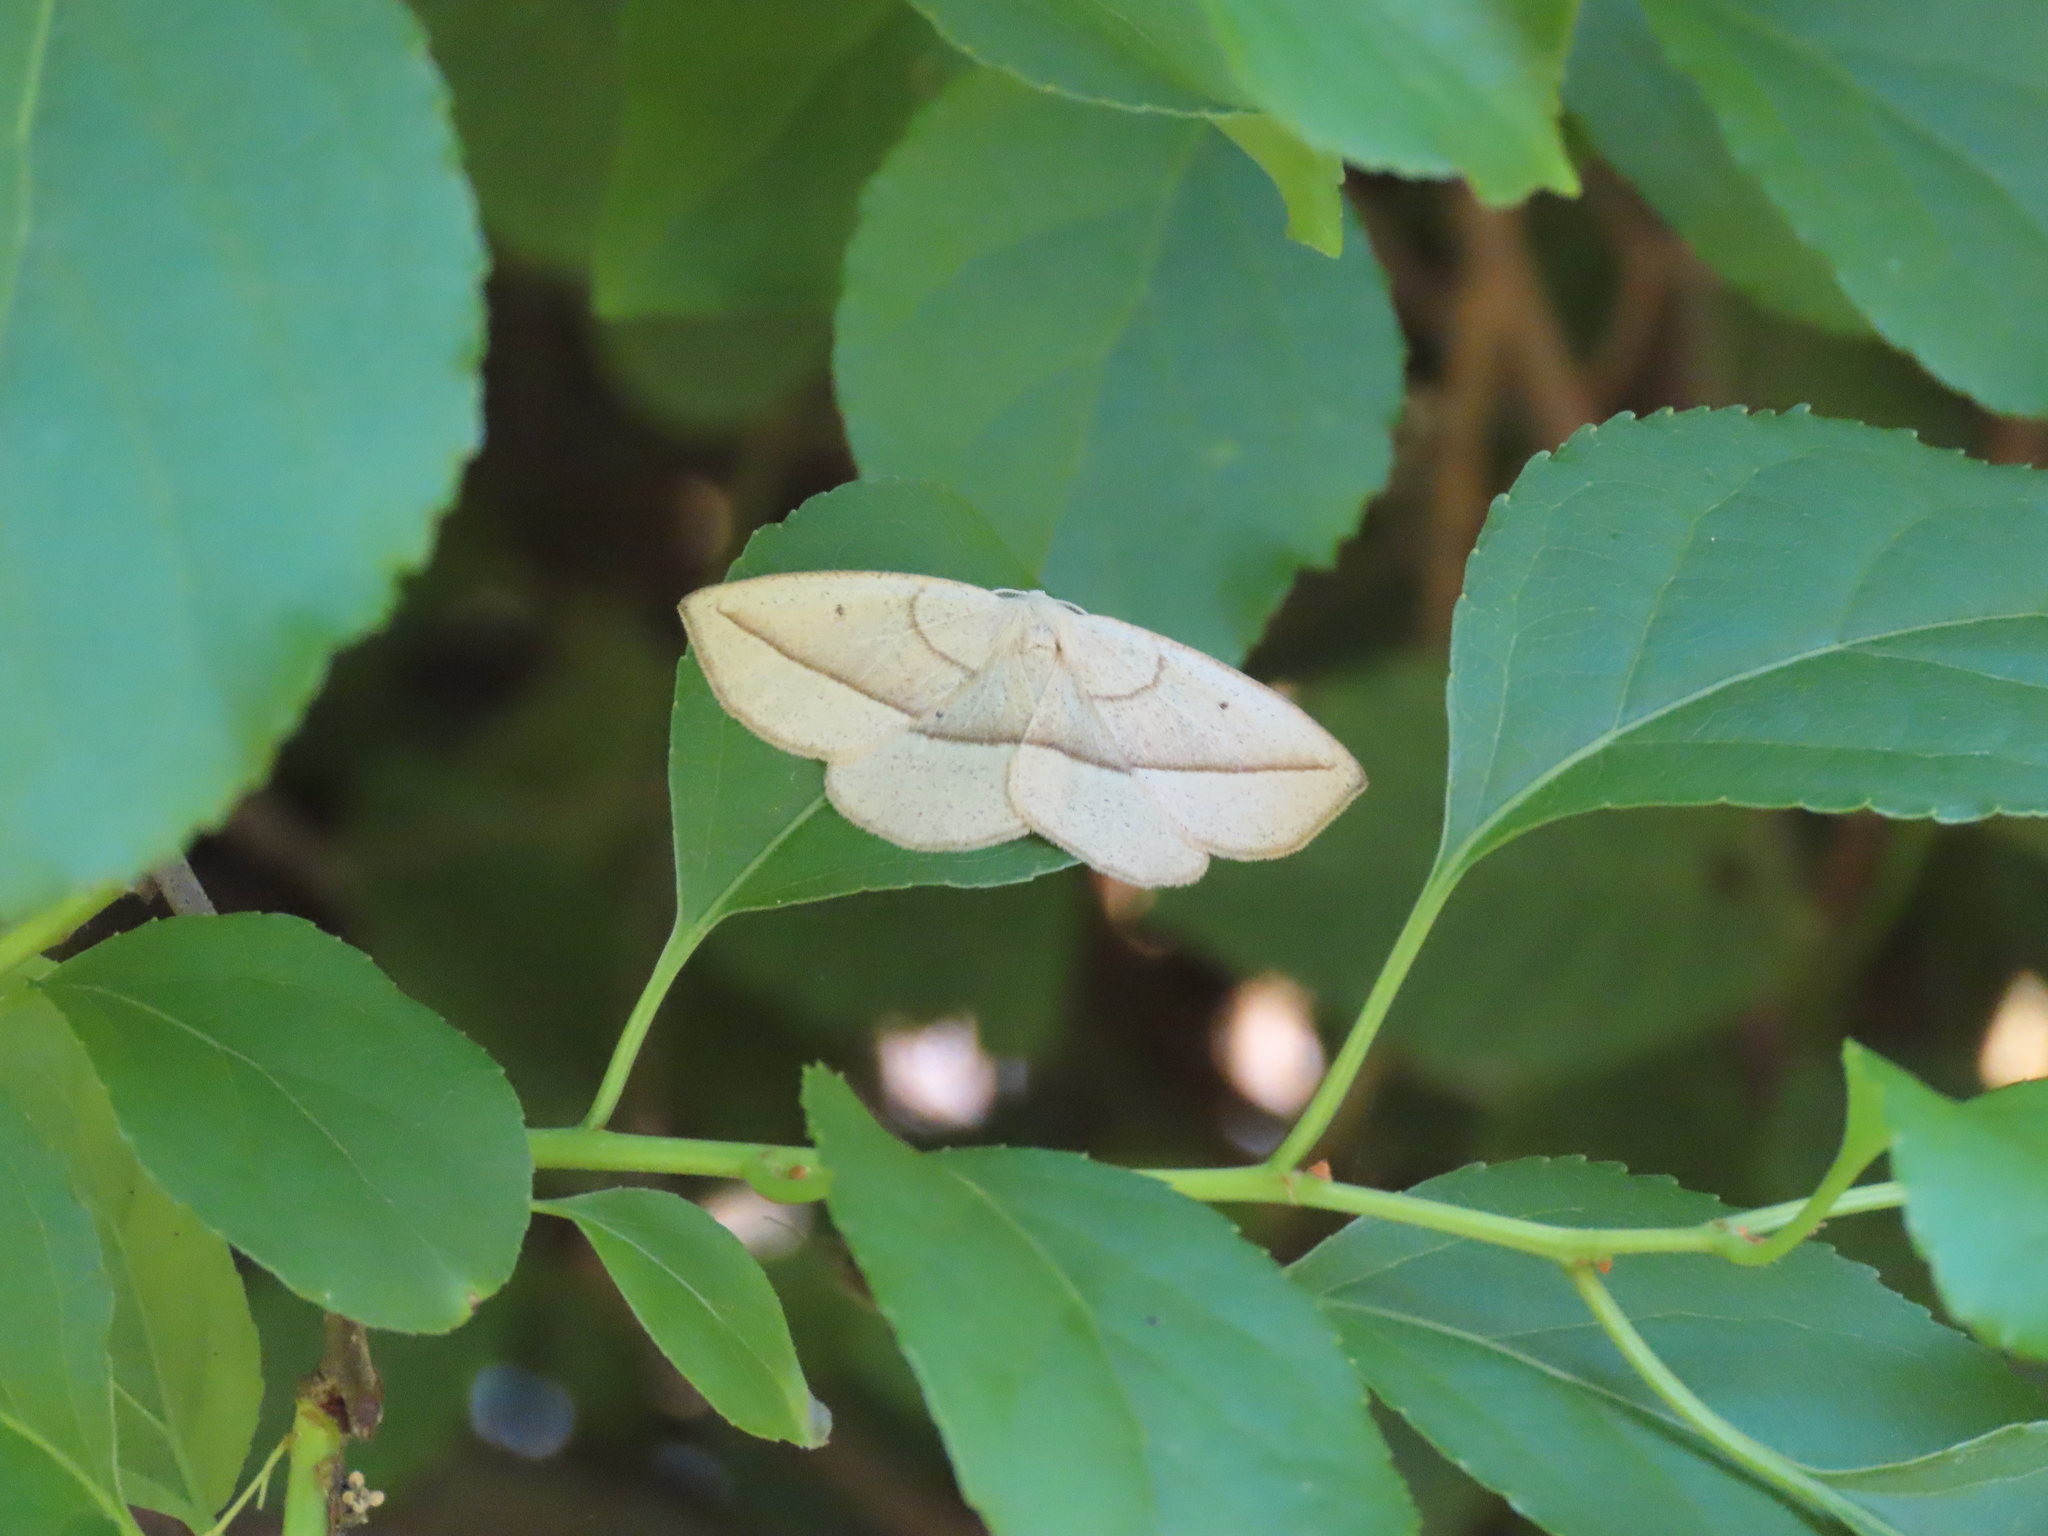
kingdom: Animalia
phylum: Arthropoda
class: Insecta
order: Lepidoptera
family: Geometridae
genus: Eusarca
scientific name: Eusarca confusaria
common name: Confused eusarca
